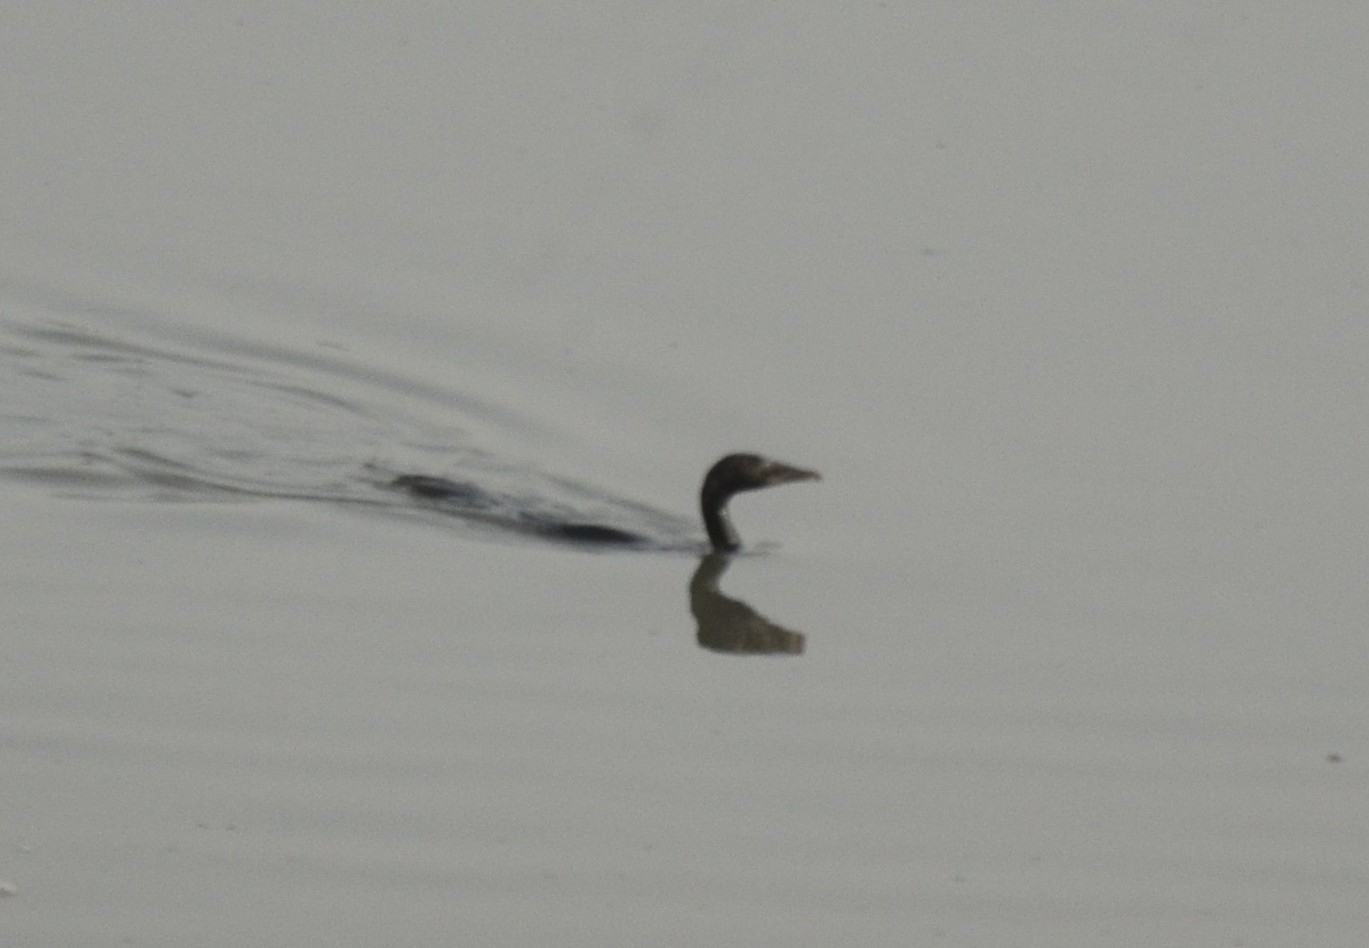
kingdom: Animalia
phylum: Chordata
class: Aves
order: Suliformes
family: Phalacrocoracidae
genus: Microcarbo
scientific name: Microcarbo niger
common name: Little cormorant
